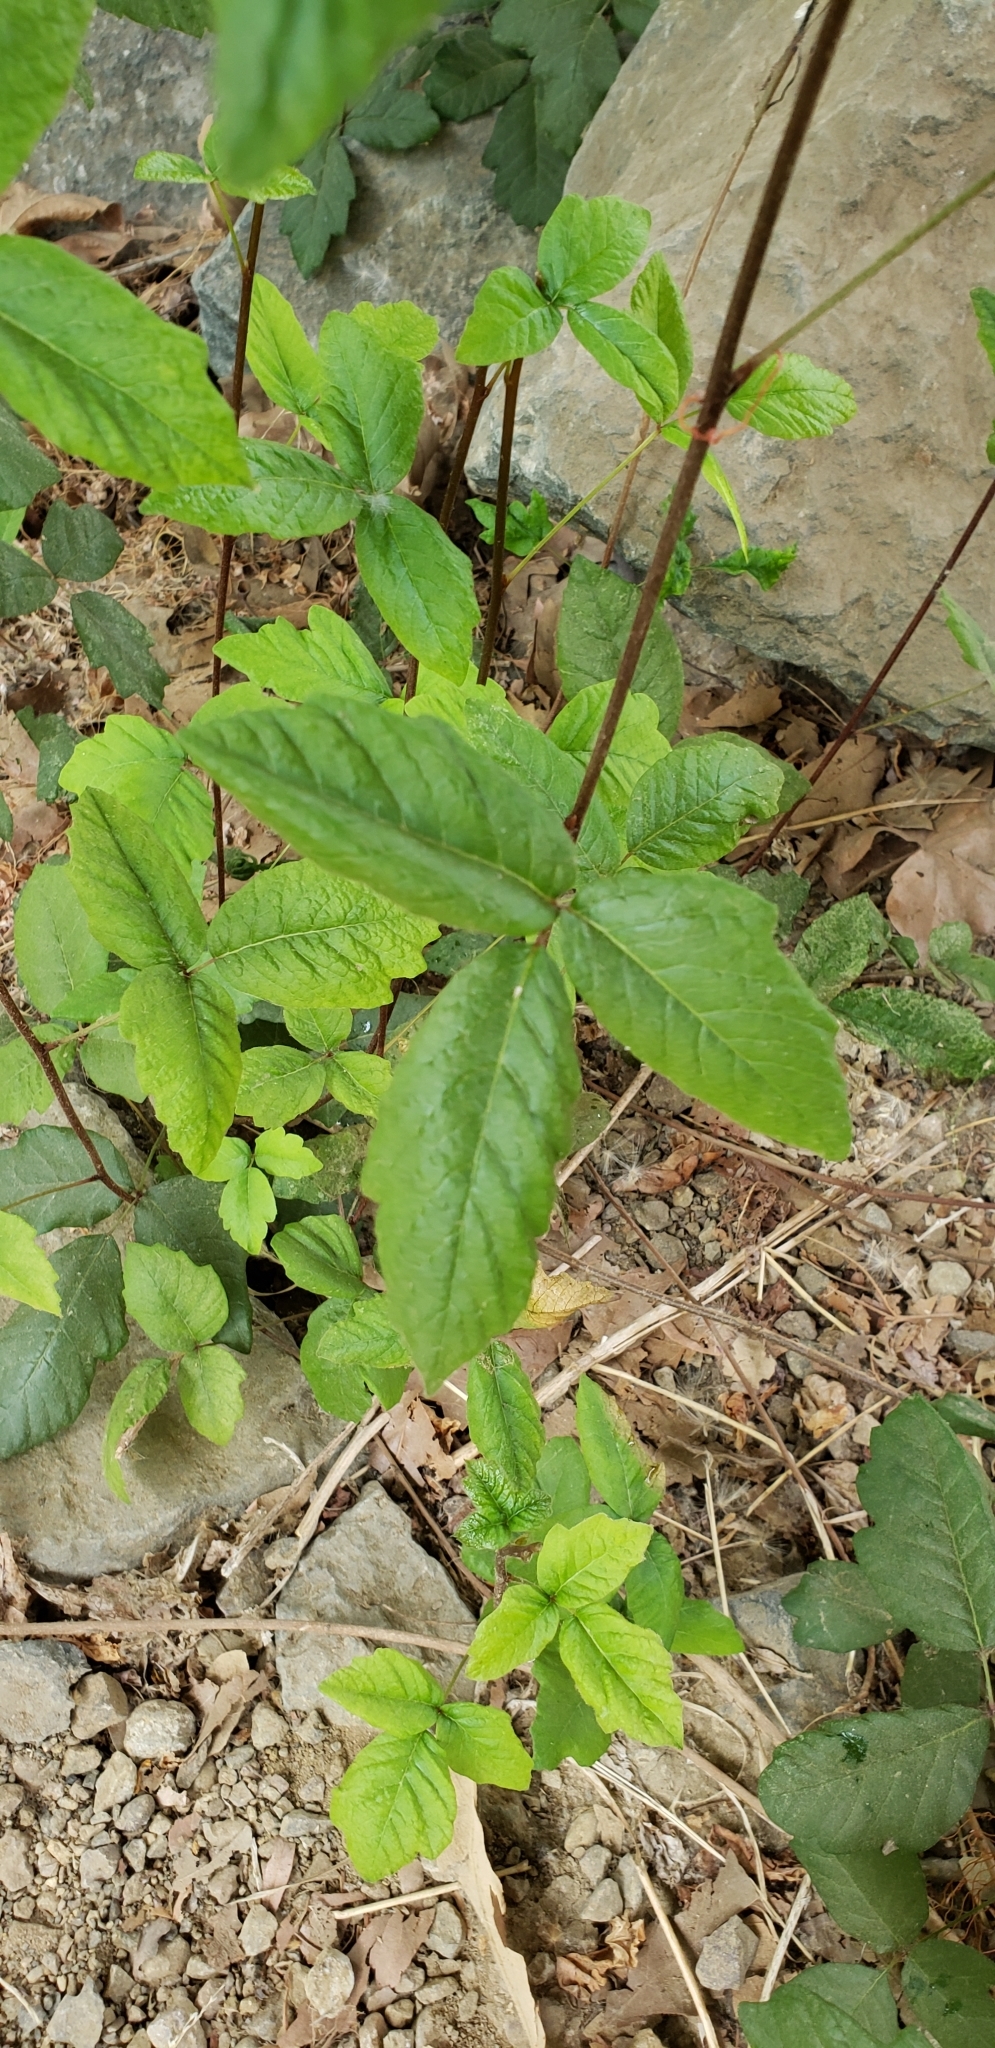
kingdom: Plantae
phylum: Tracheophyta
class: Magnoliopsida
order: Sapindales
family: Anacardiaceae
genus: Toxicodendron
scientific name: Toxicodendron diversilobum
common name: Pacific poison-oak
